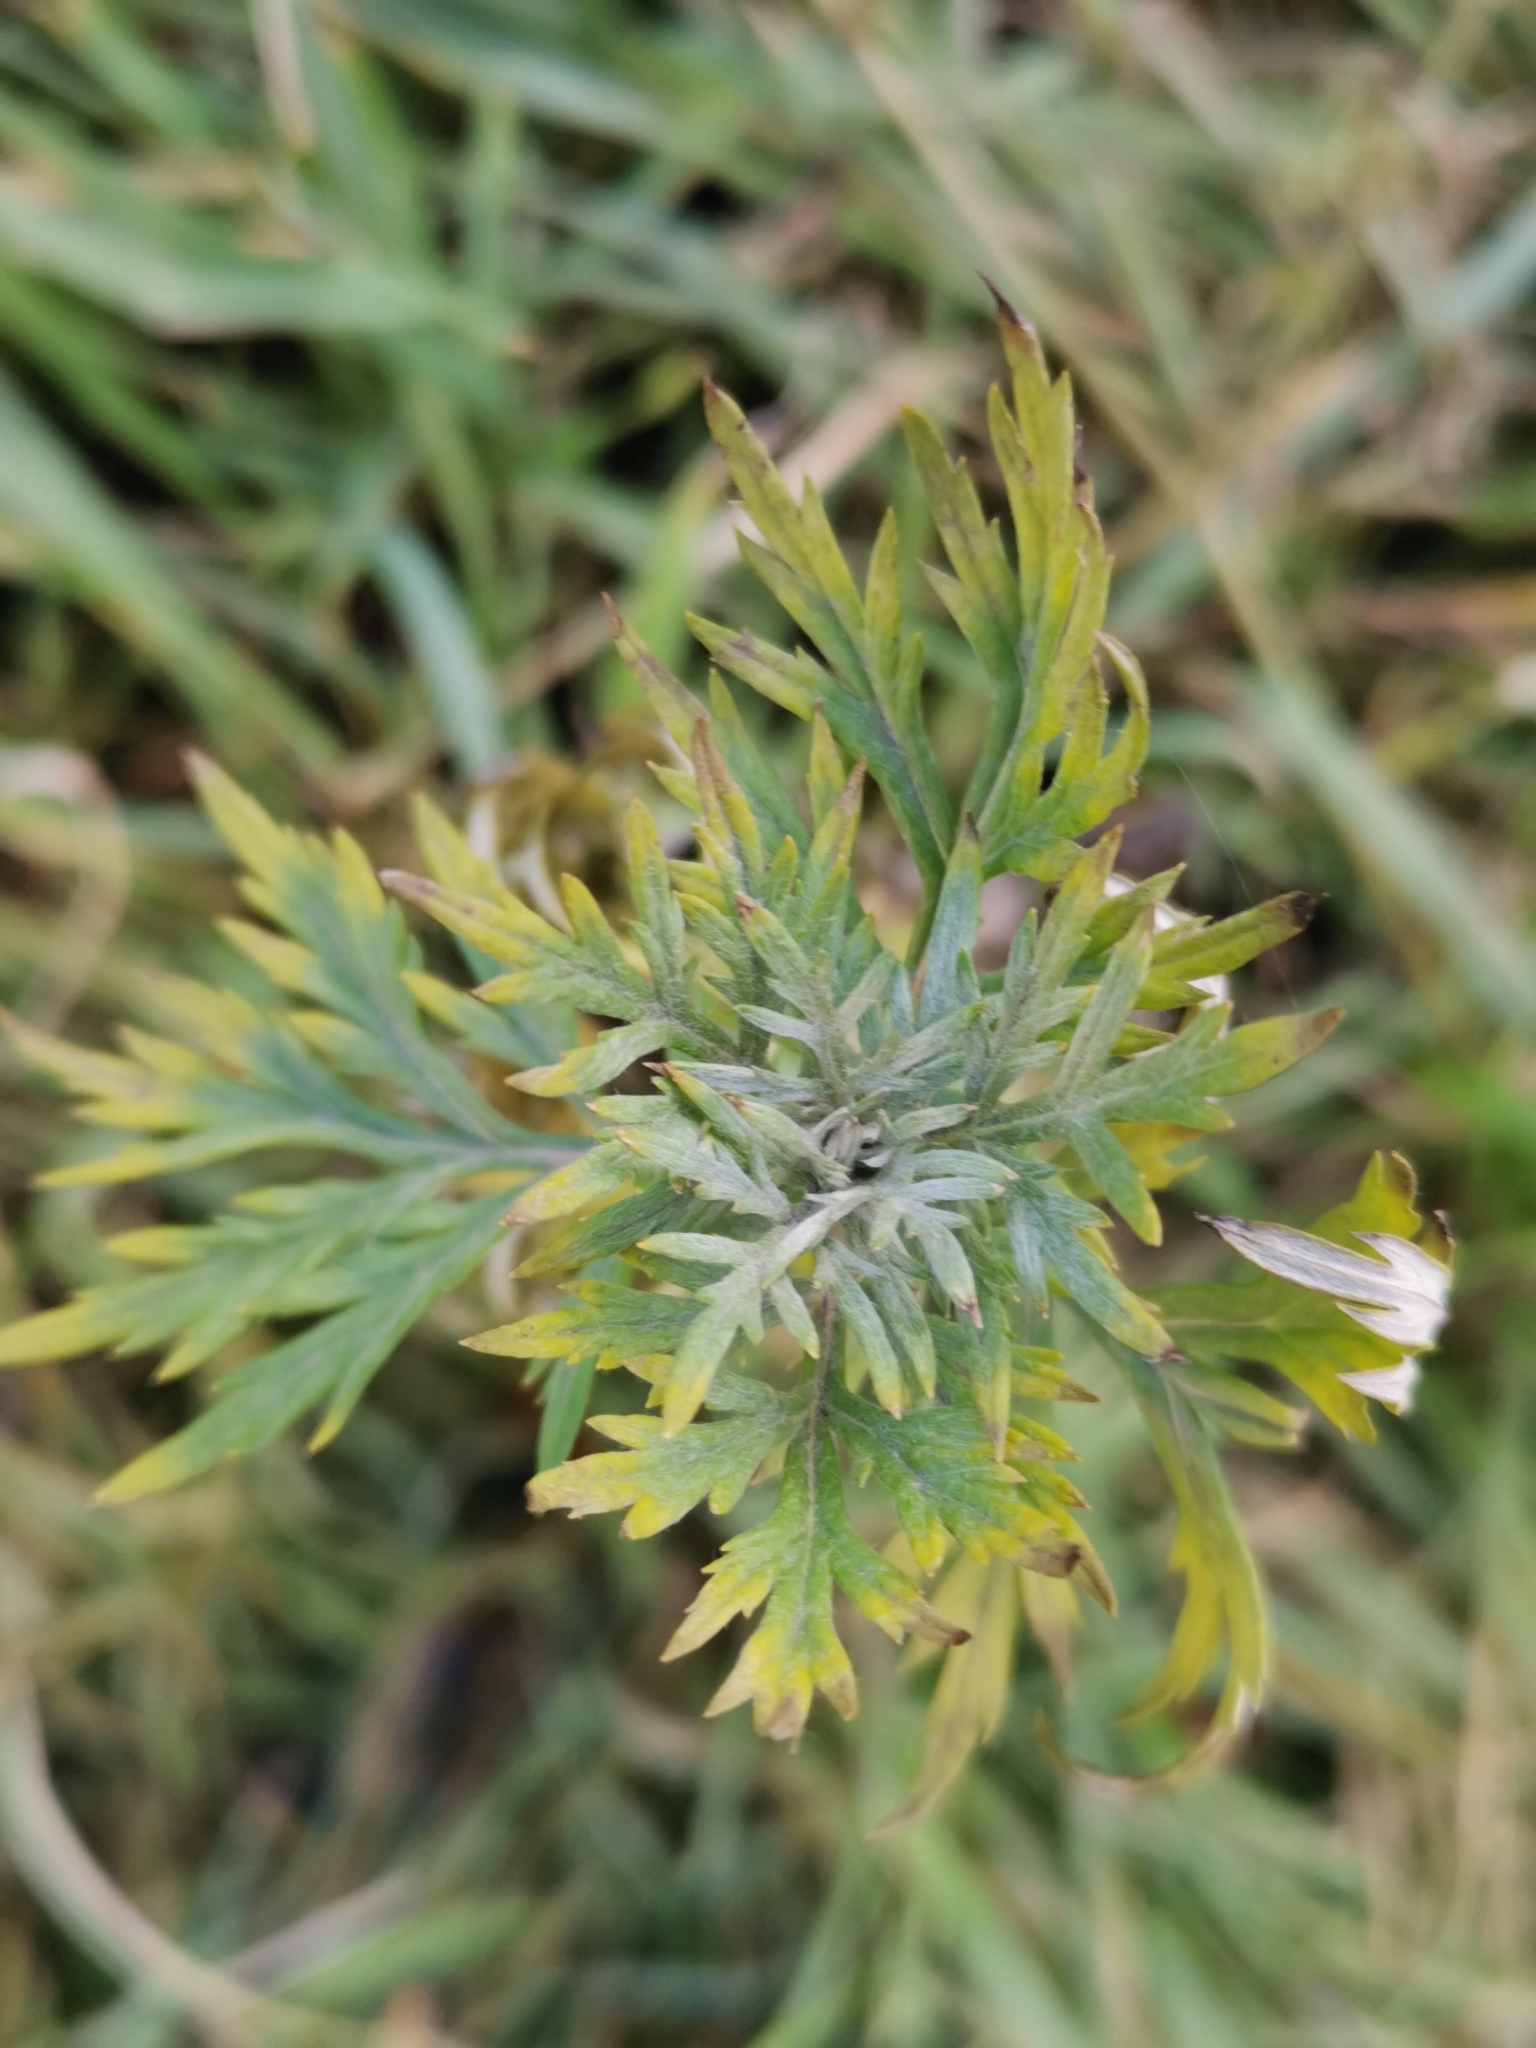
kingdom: Plantae
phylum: Tracheophyta
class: Magnoliopsida
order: Asterales
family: Asteraceae
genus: Artemisia
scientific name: Artemisia vulgaris
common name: Mugwort
